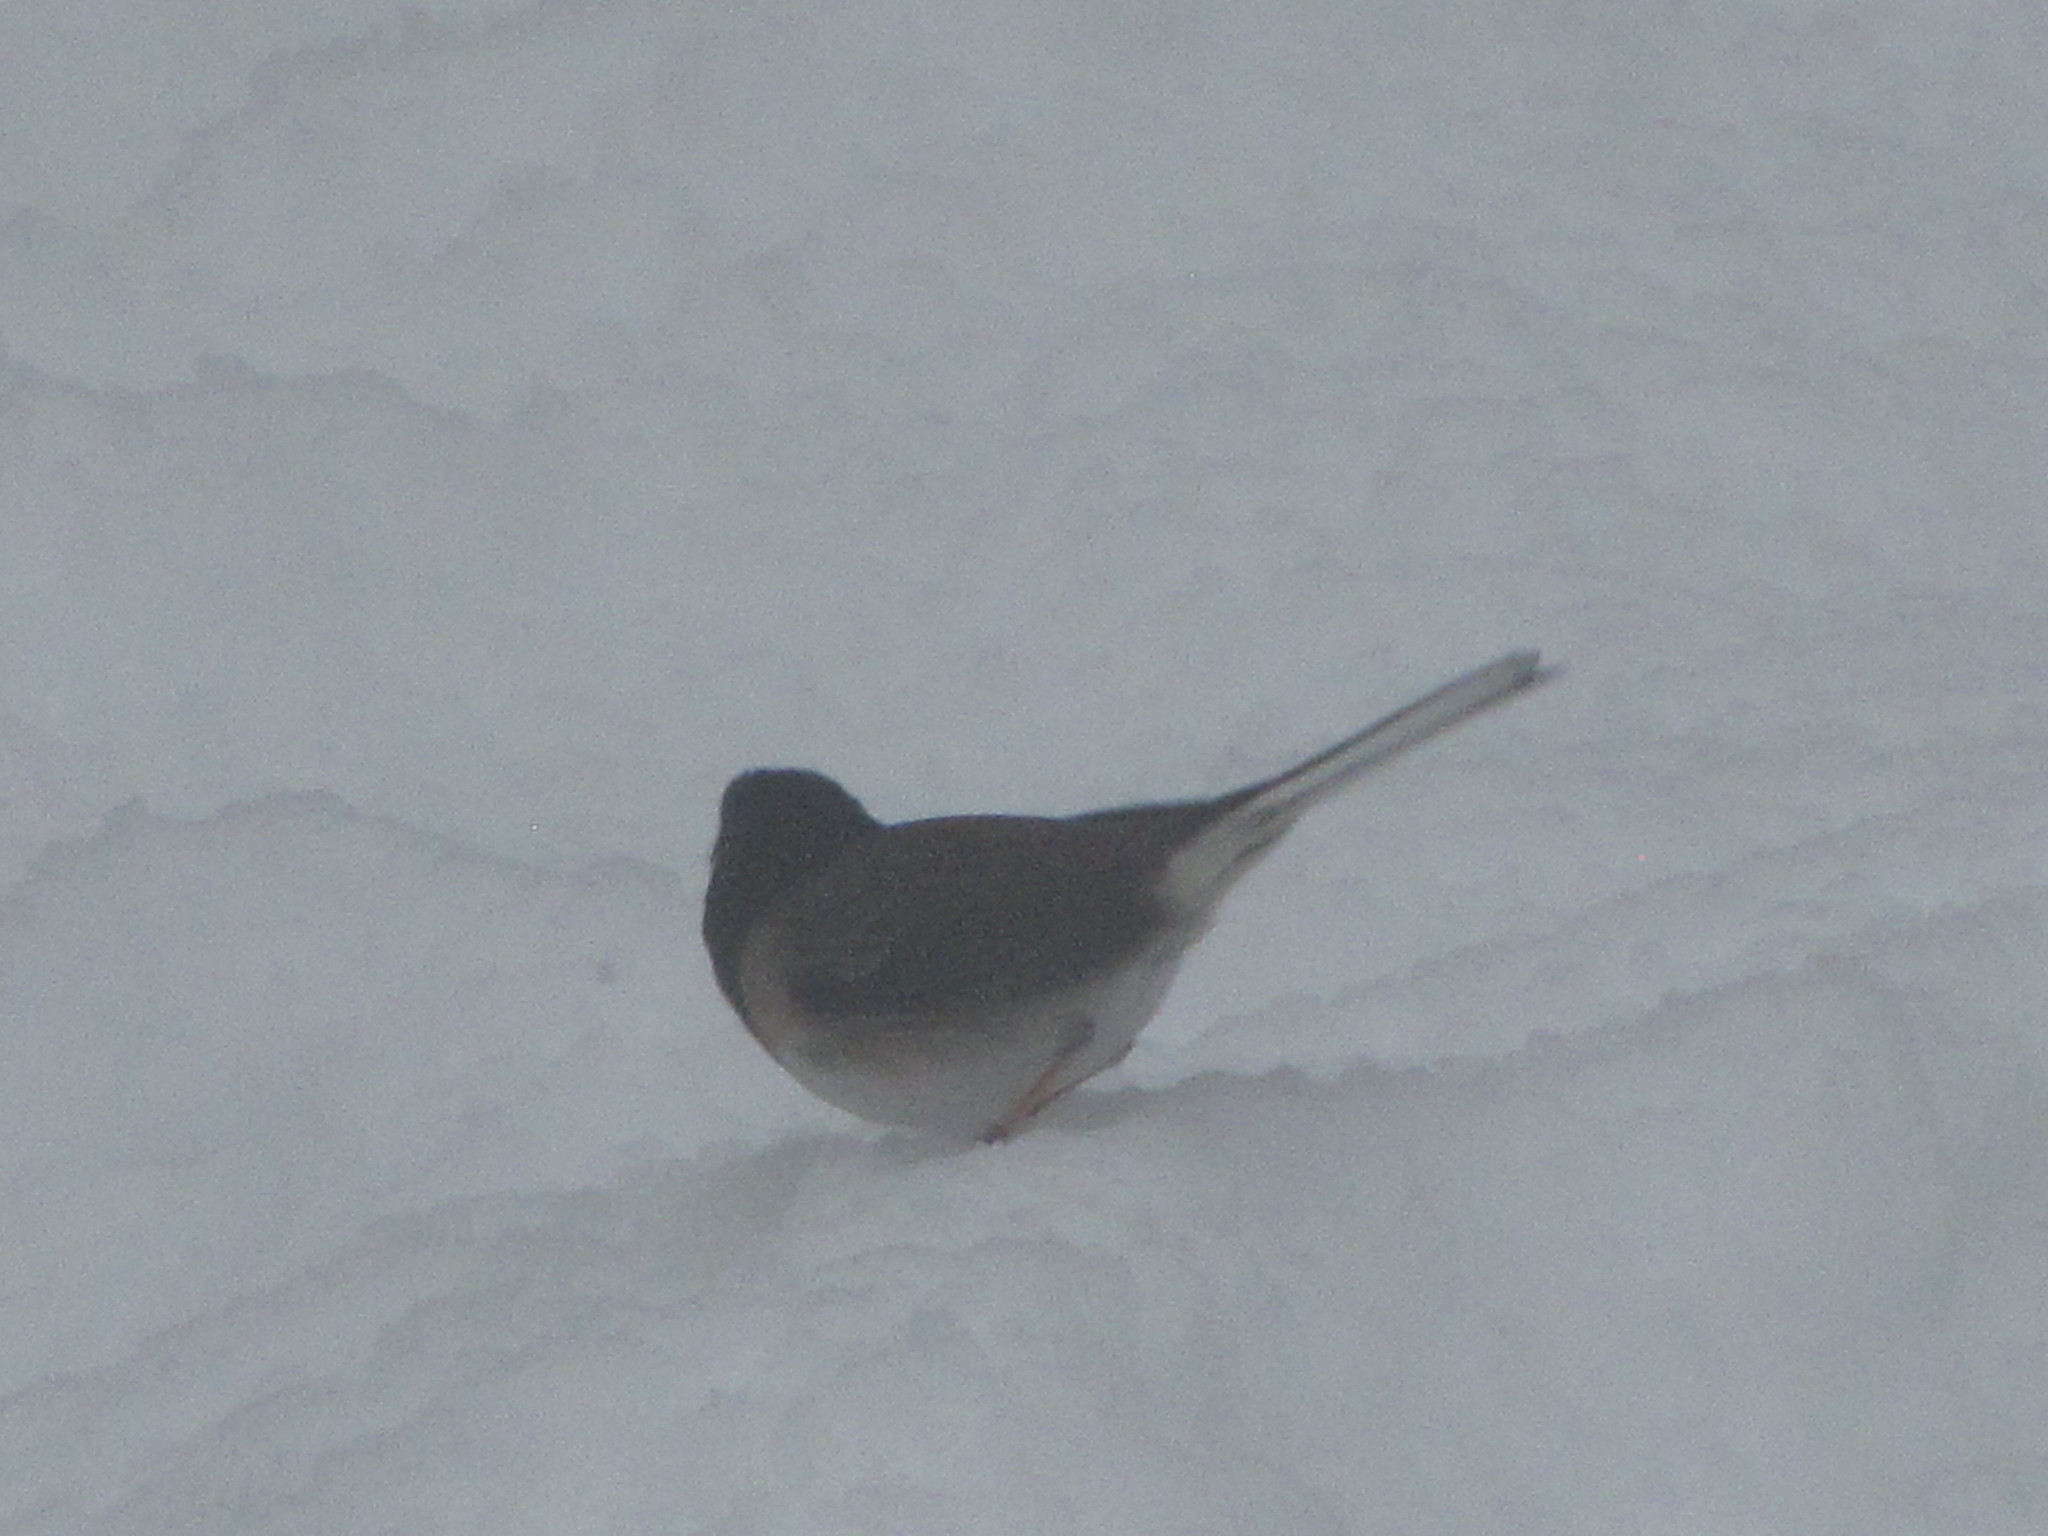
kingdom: Animalia
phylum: Chordata
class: Aves
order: Passeriformes
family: Passerellidae
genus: Junco
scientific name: Junco hyemalis
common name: Dark-eyed junco
